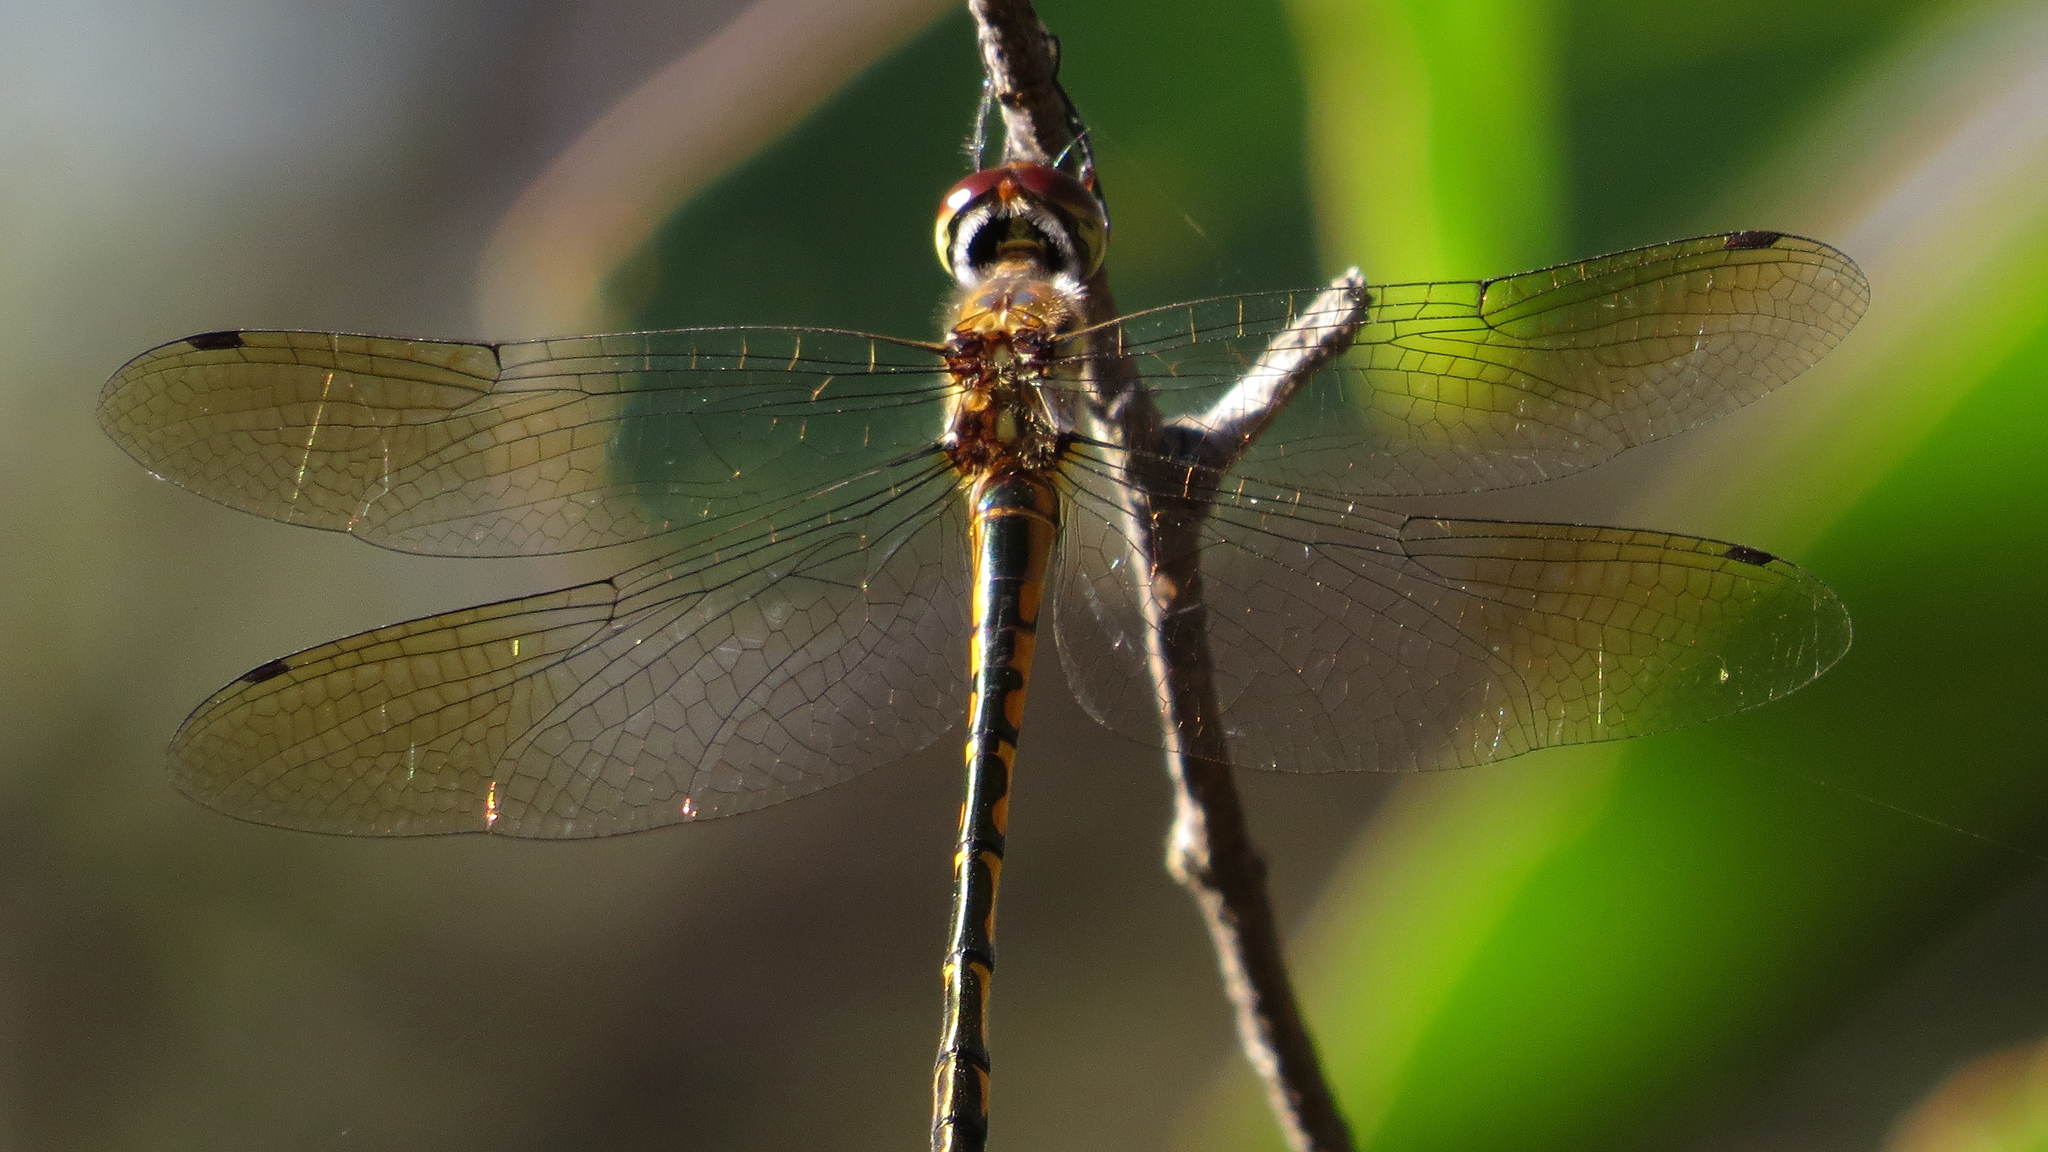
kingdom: Animalia
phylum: Arthropoda
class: Insecta
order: Odonata
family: Corduliidae
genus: Hemicordulia
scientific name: Hemicordulia australiae
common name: Sentry dragonfly
